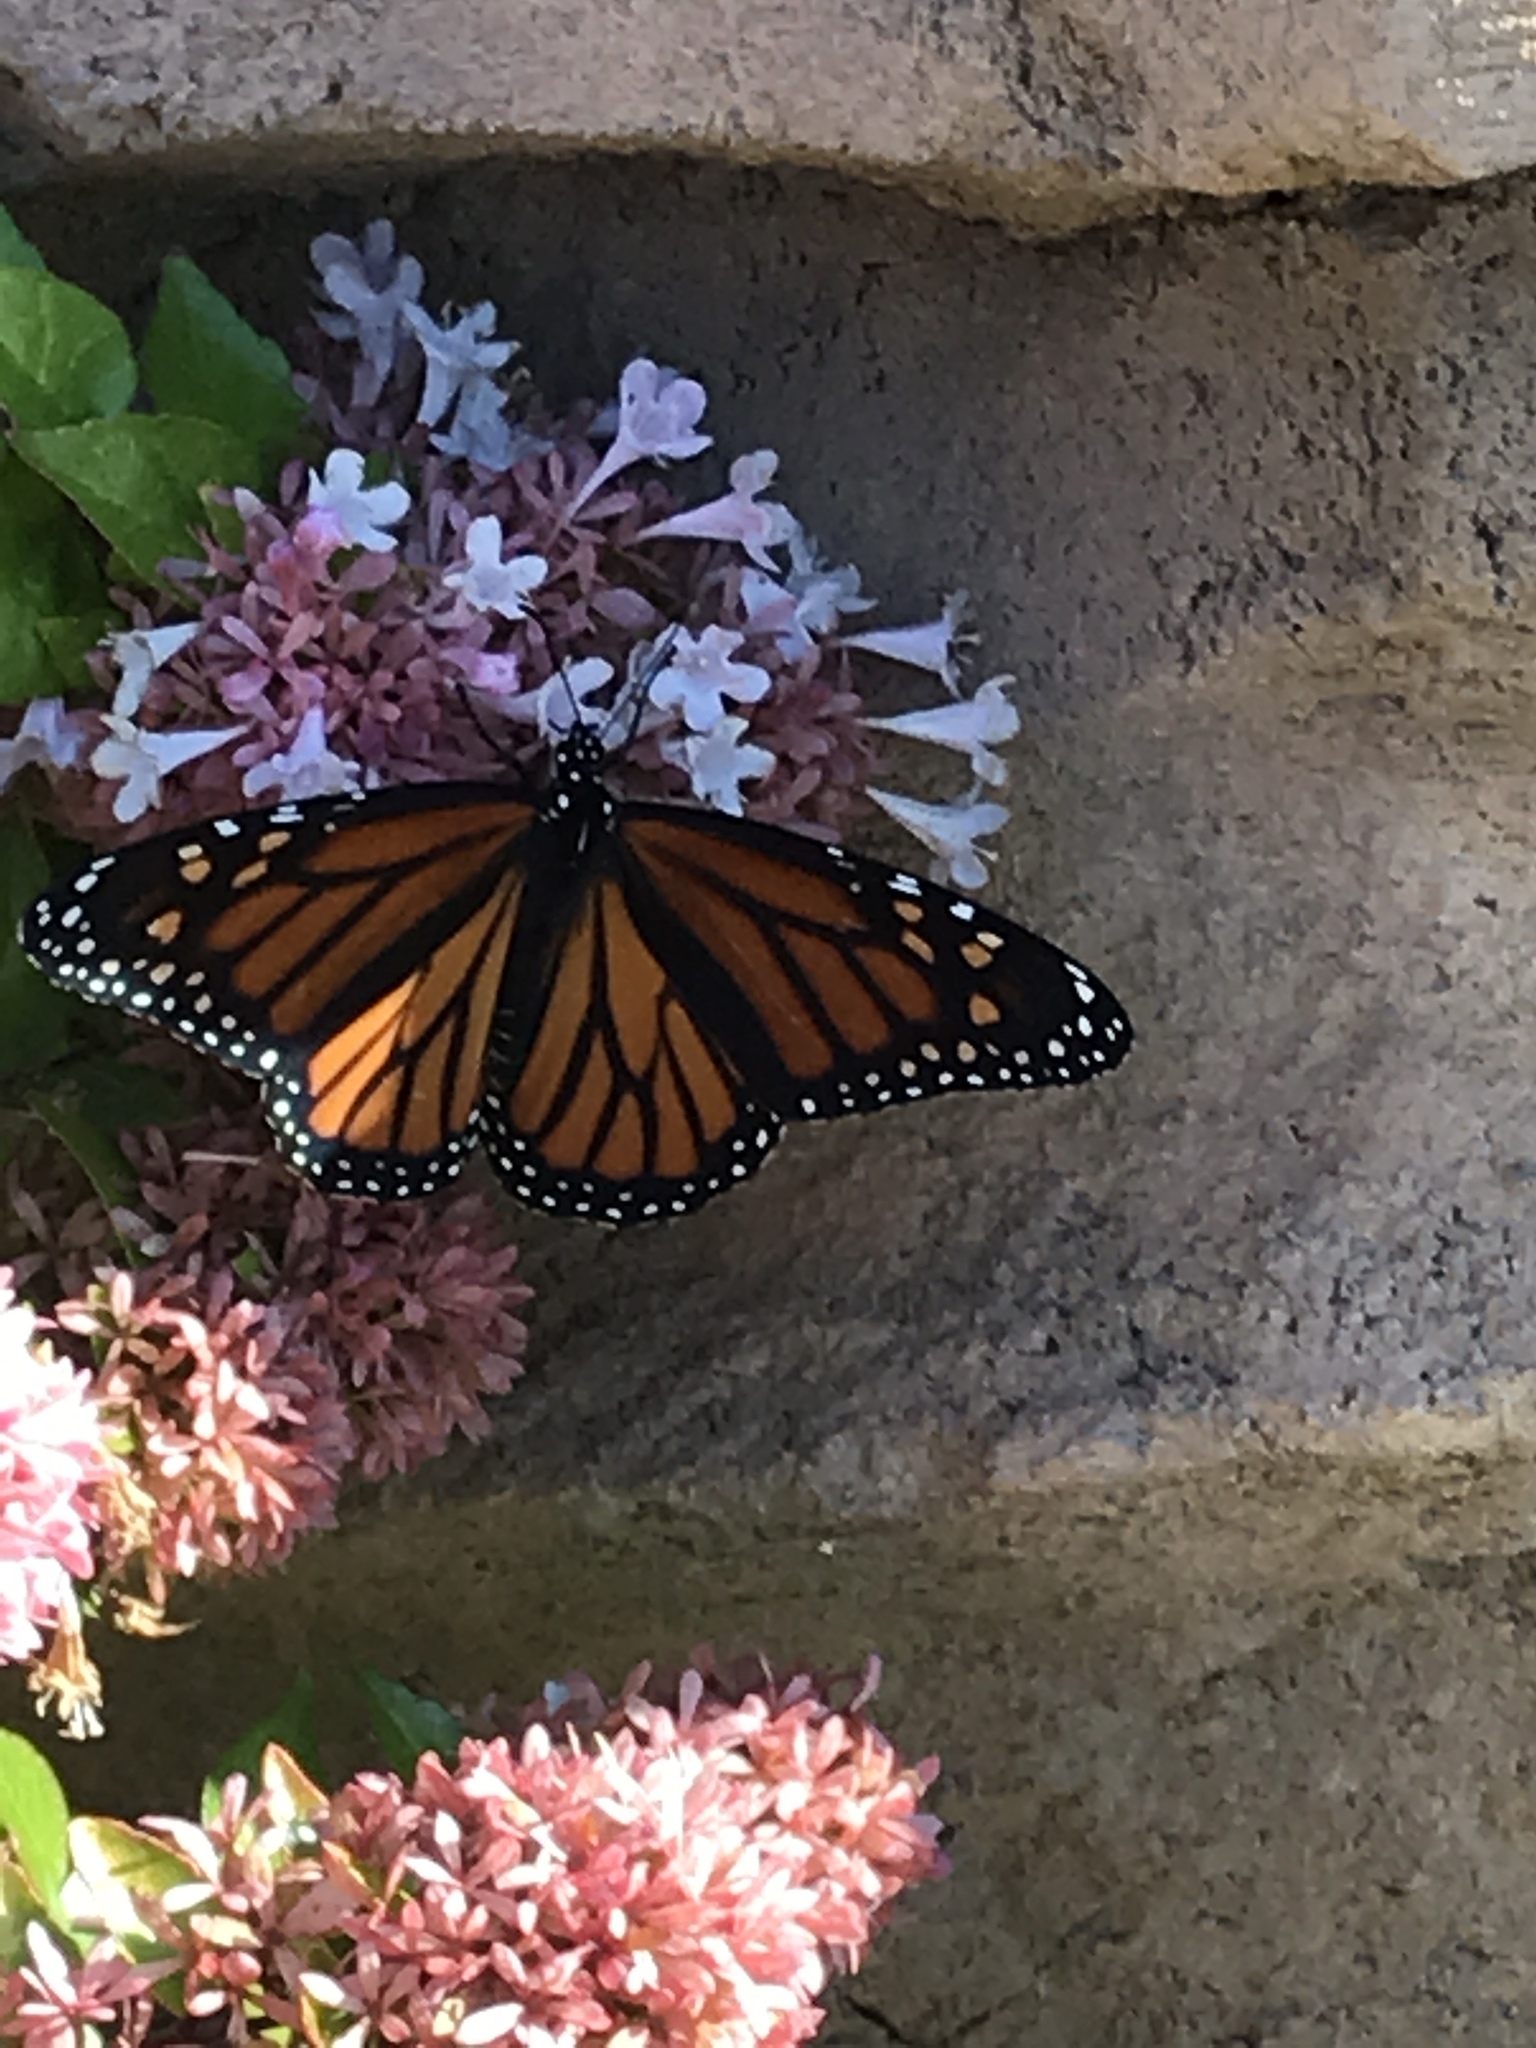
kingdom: Animalia
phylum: Arthropoda
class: Insecta
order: Lepidoptera
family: Nymphalidae
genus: Danaus
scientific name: Danaus plexippus
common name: Monarch
